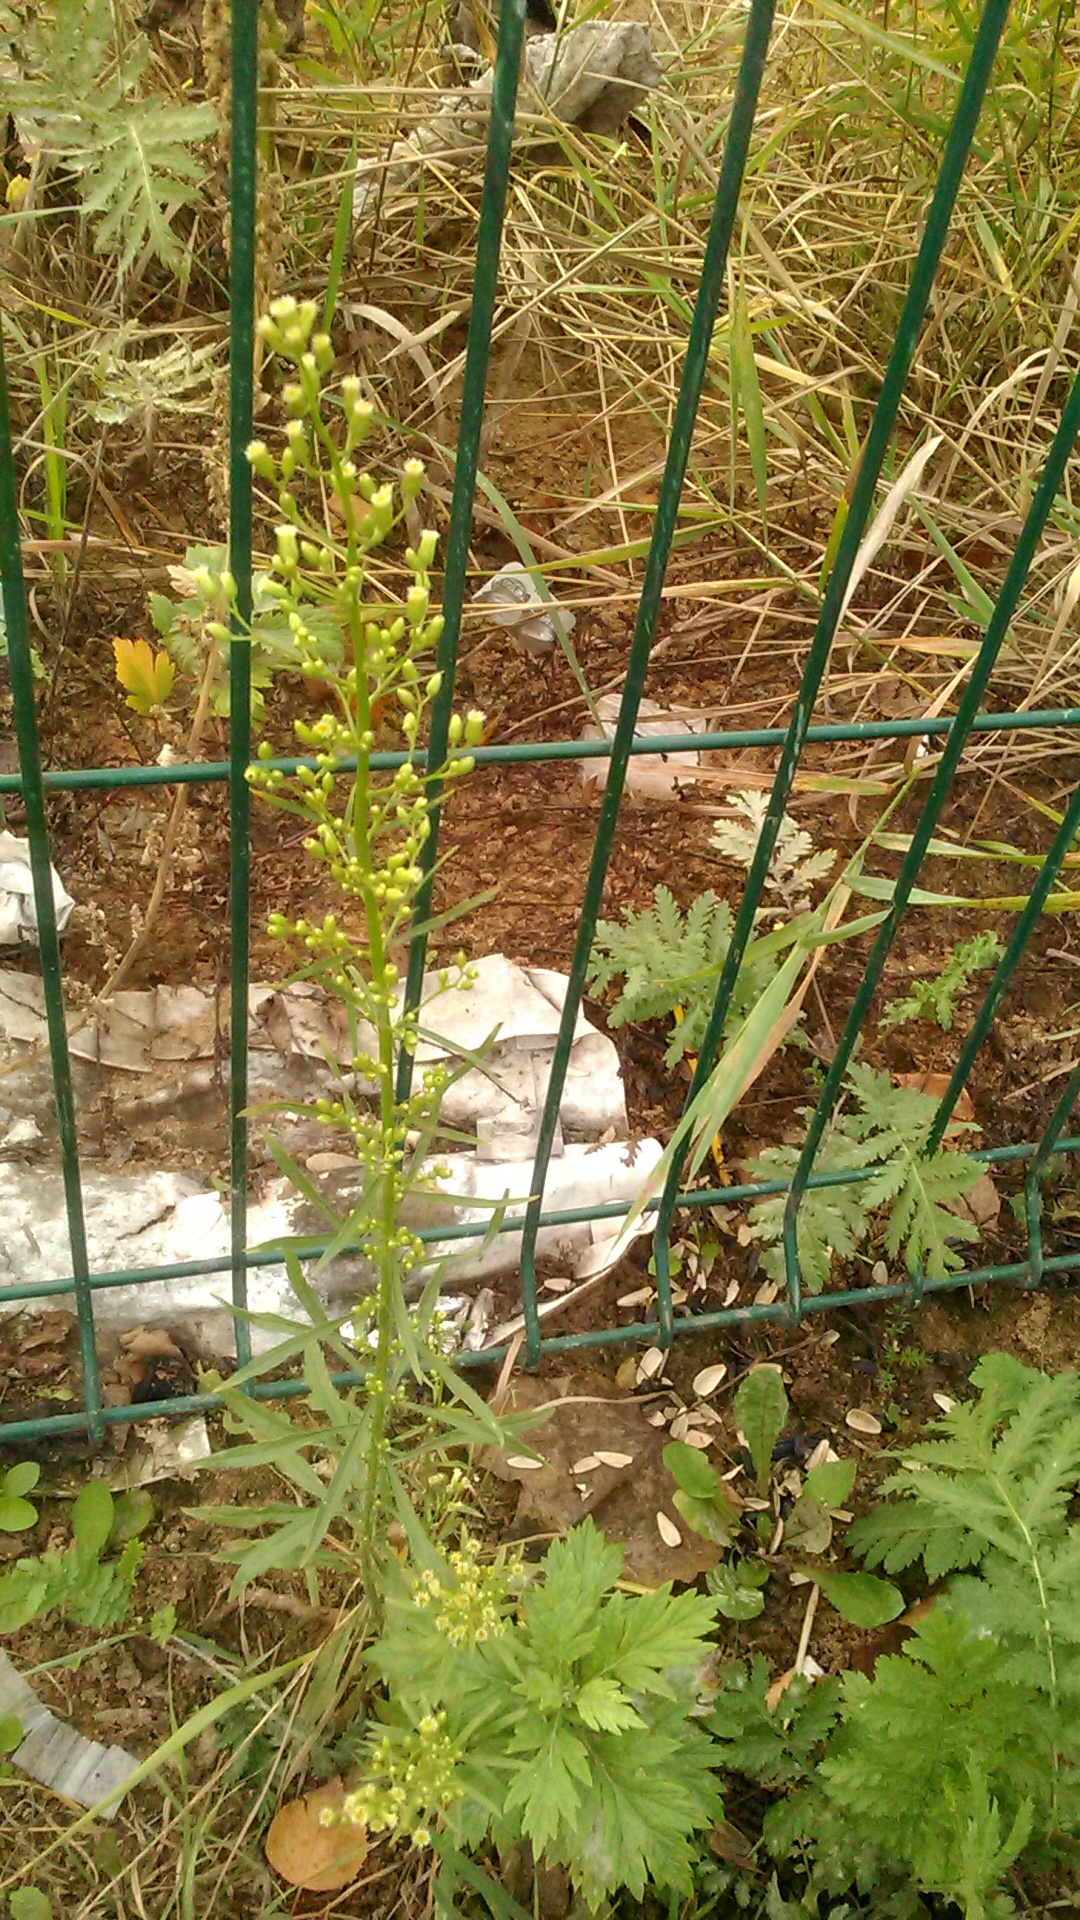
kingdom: Plantae
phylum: Tracheophyta
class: Magnoliopsida
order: Asterales
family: Asteraceae
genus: Erigeron
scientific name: Erigeron canadensis
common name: Canadian fleabane
